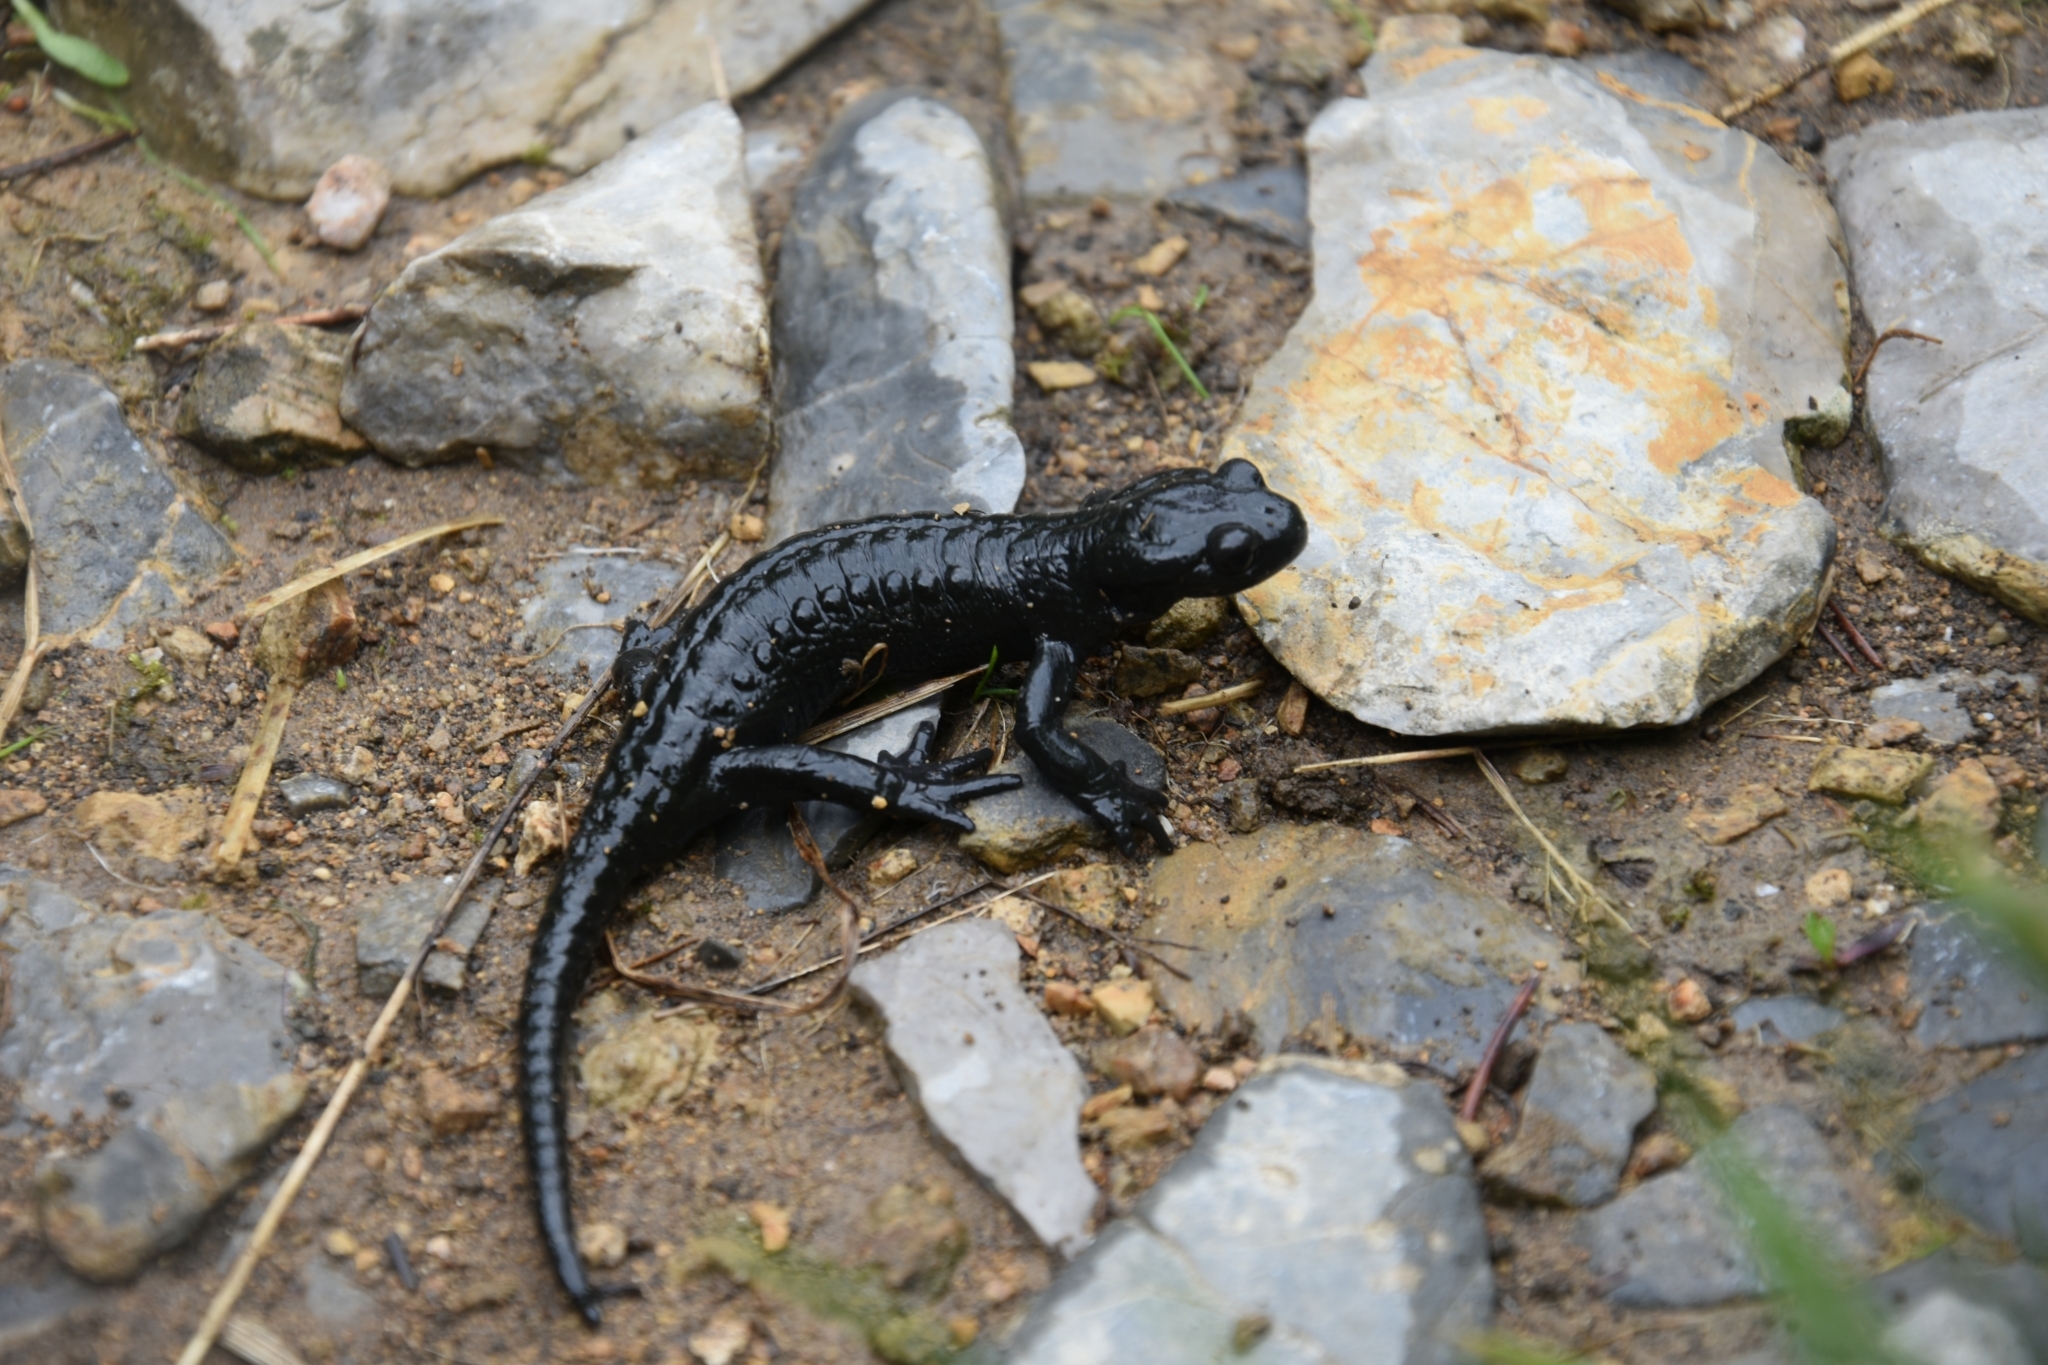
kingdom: Animalia
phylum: Chordata
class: Amphibia
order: Caudata
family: Salamandridae
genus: Salamandra
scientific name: Salamandra atra
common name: Alpine salamander
